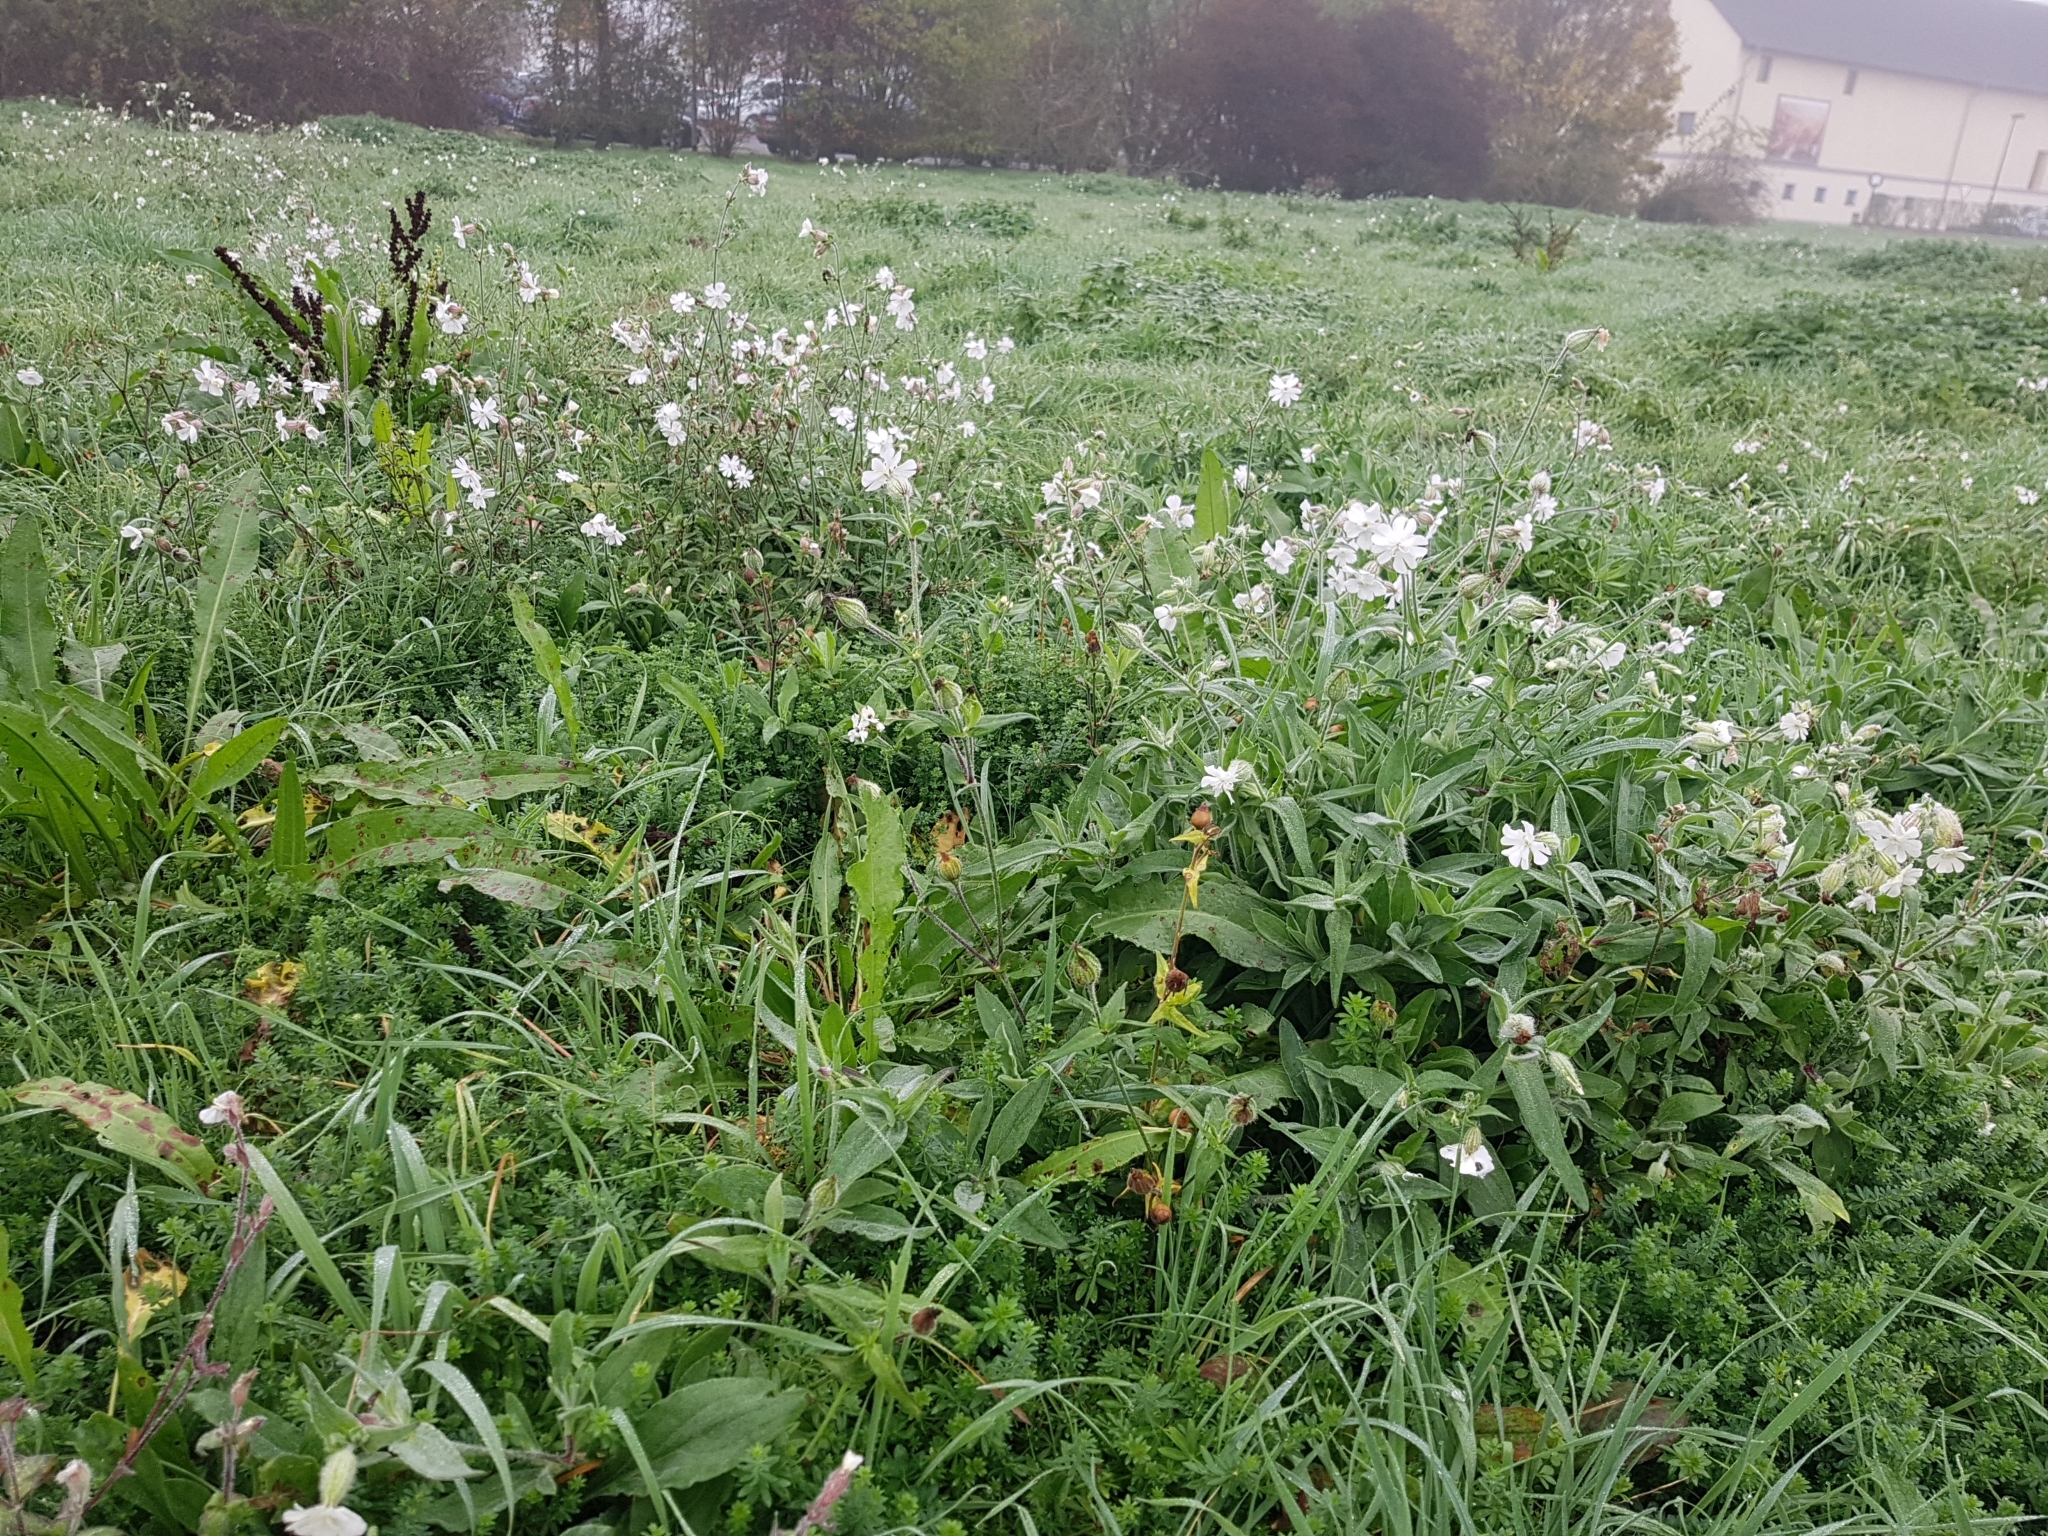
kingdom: Plantae
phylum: Tracheophyta
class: Magnoliopsida
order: Caryophyllales
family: Caryophyllaceae
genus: Silene
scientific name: Silene latifolia
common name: White campion
